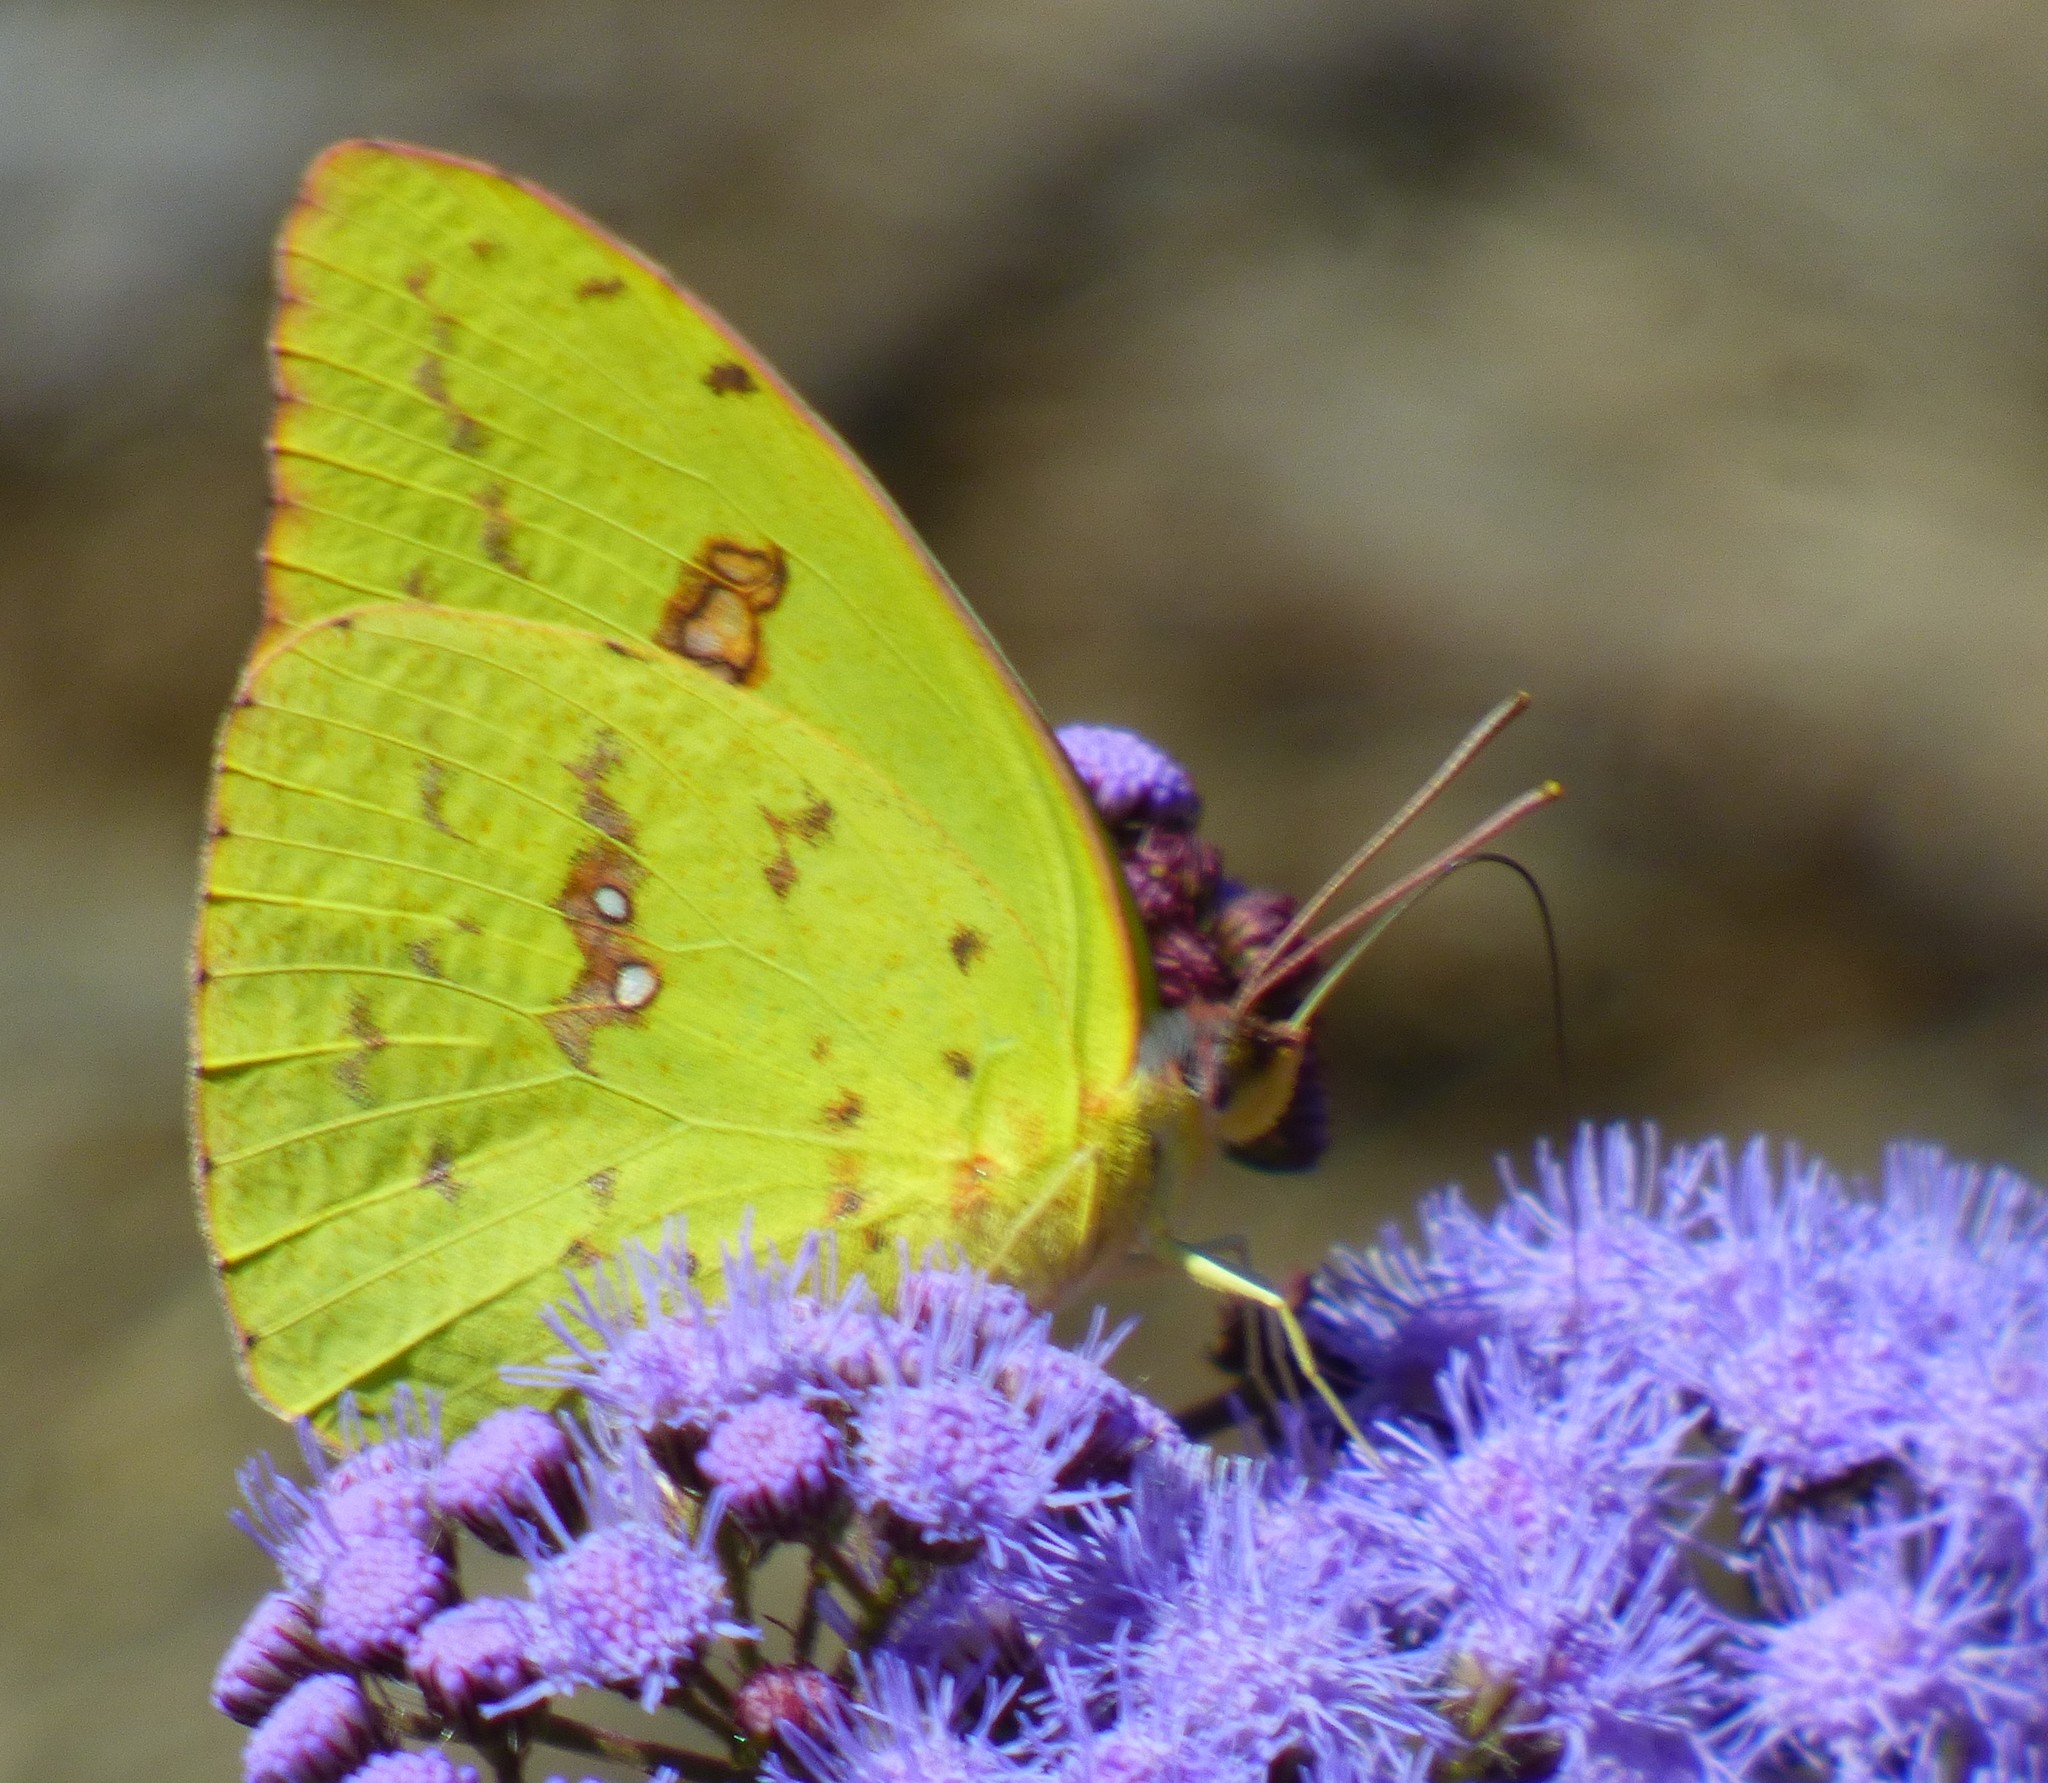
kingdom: Animalia
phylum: Arthropoda
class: Insecta
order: Lepidoptera
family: Pieridae
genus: Phoebis
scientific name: Phoebis sennae
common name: Cloudless sulphur
